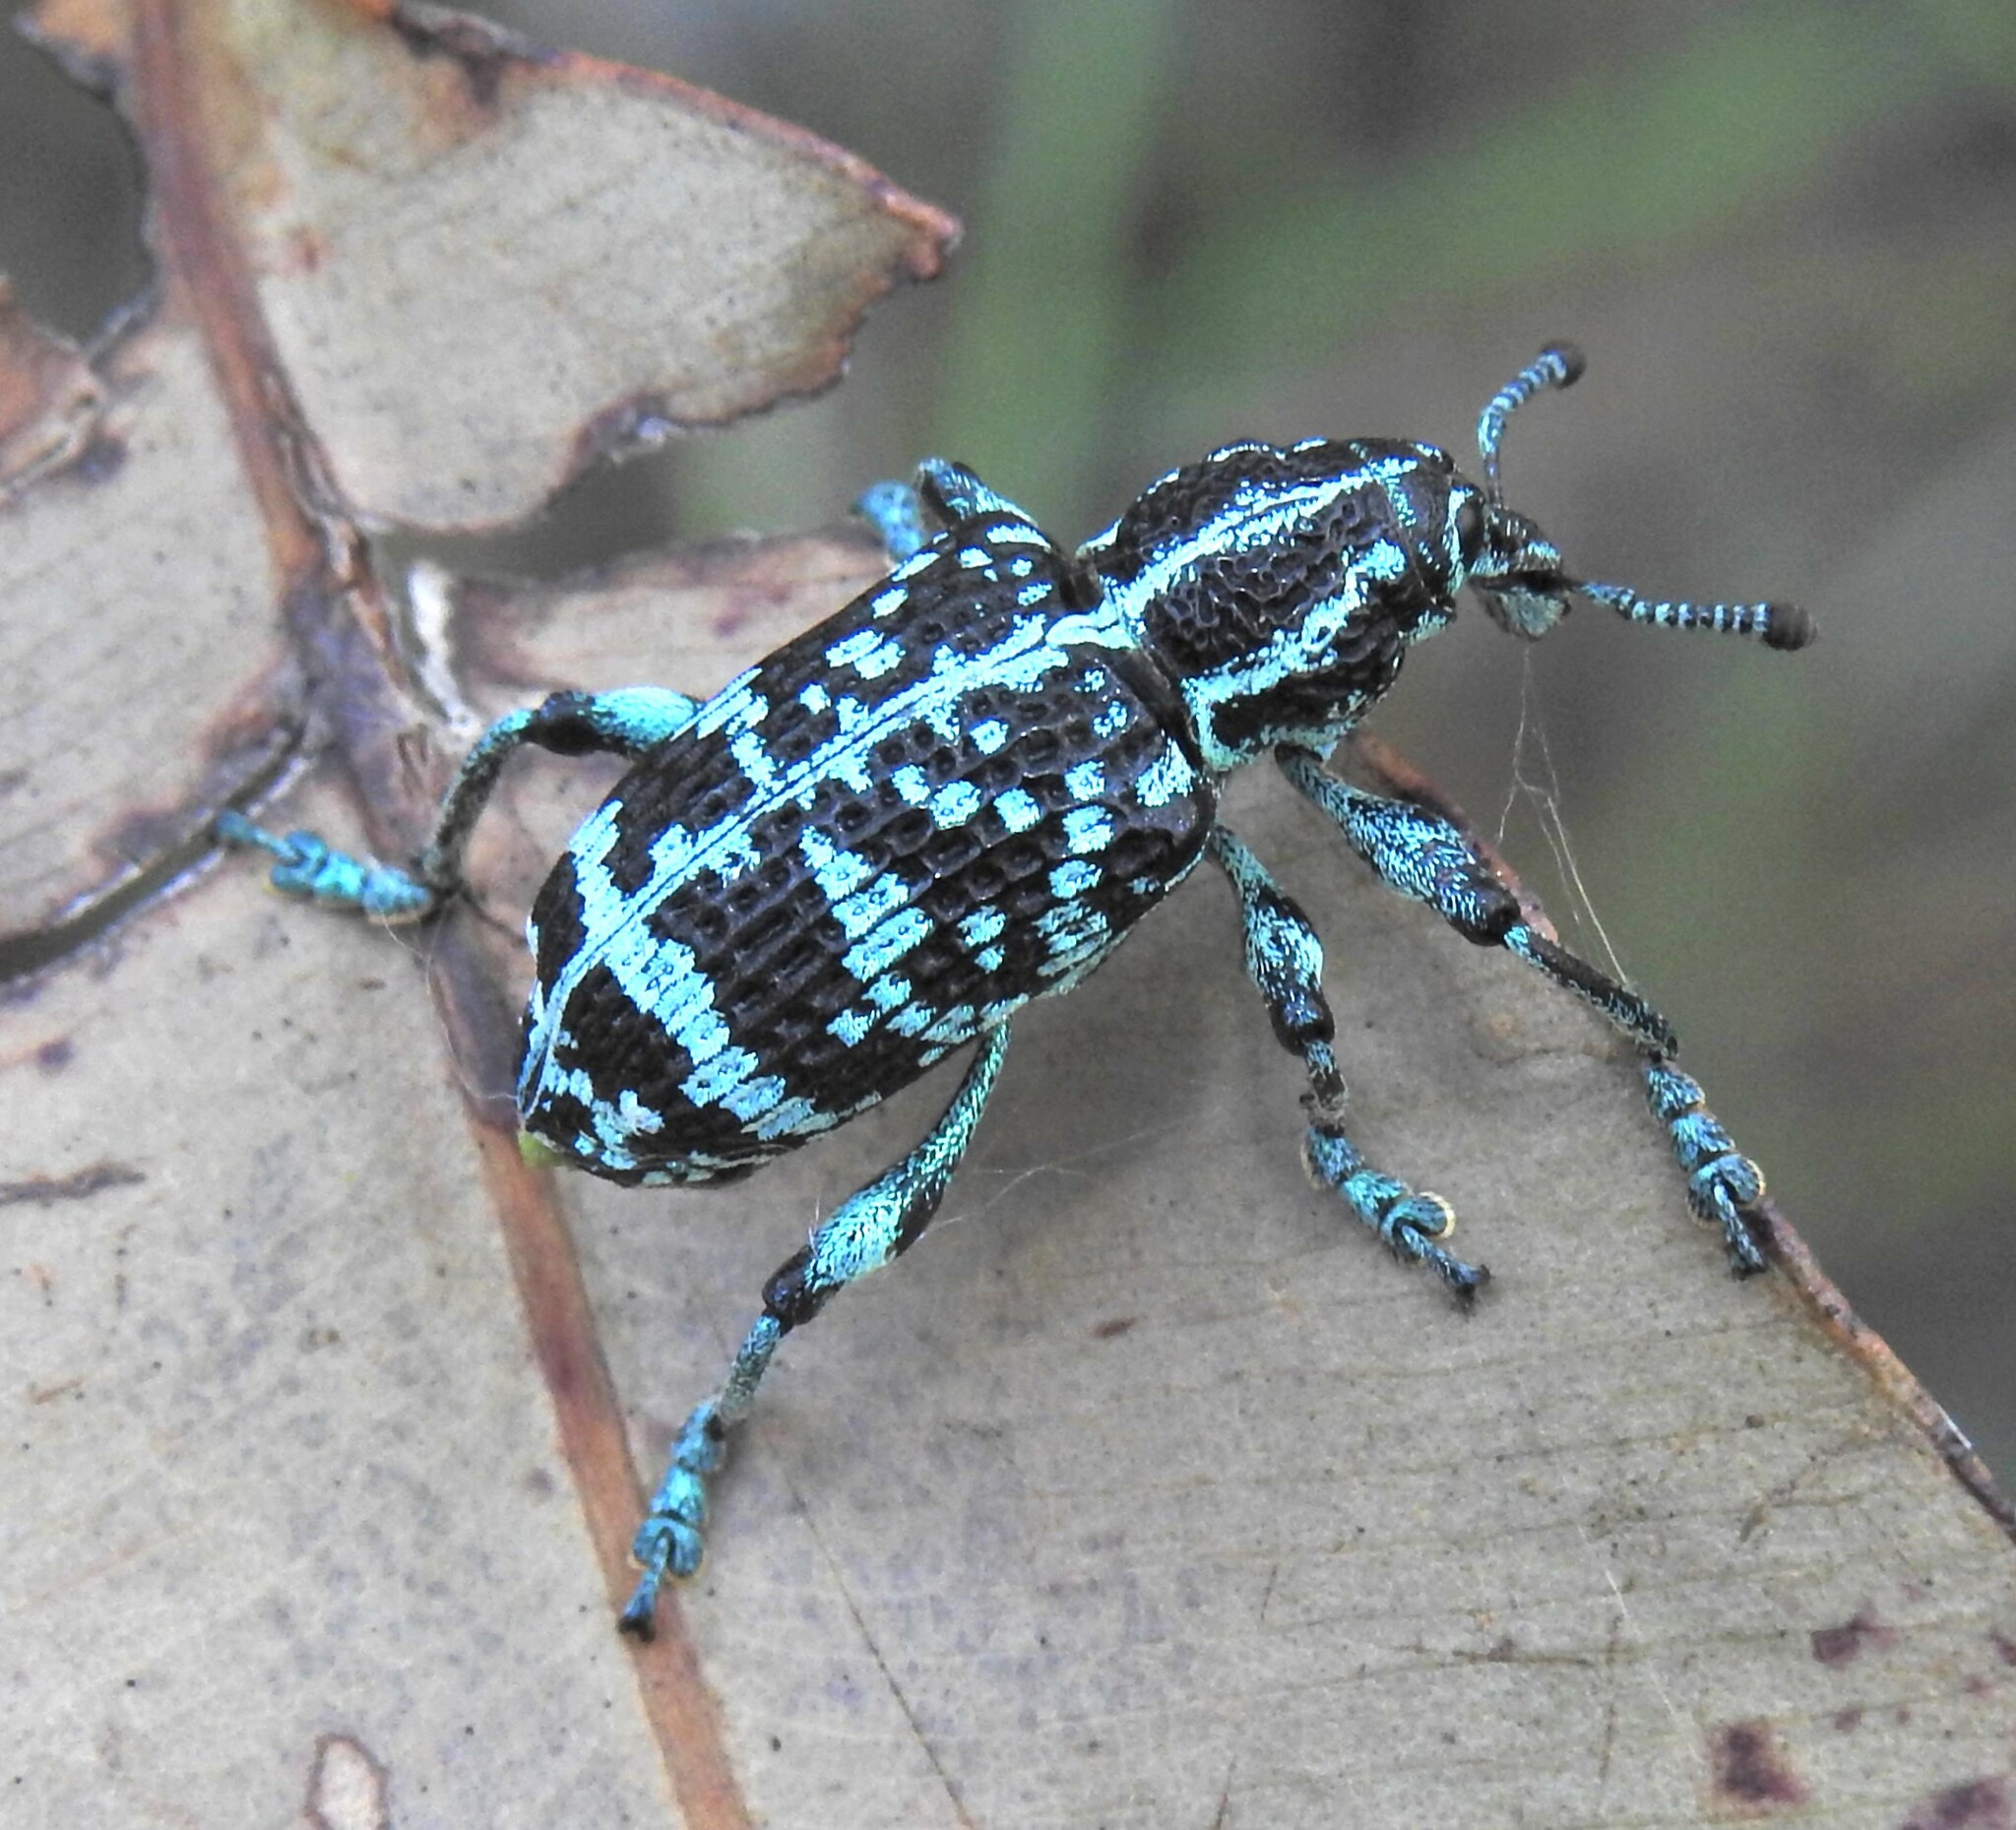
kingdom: Animalia
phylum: Arthropoda
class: Insecta
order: Coleoptera
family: Curculionidae
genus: Chrysolopus
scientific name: Chrysolopus spectabilis
